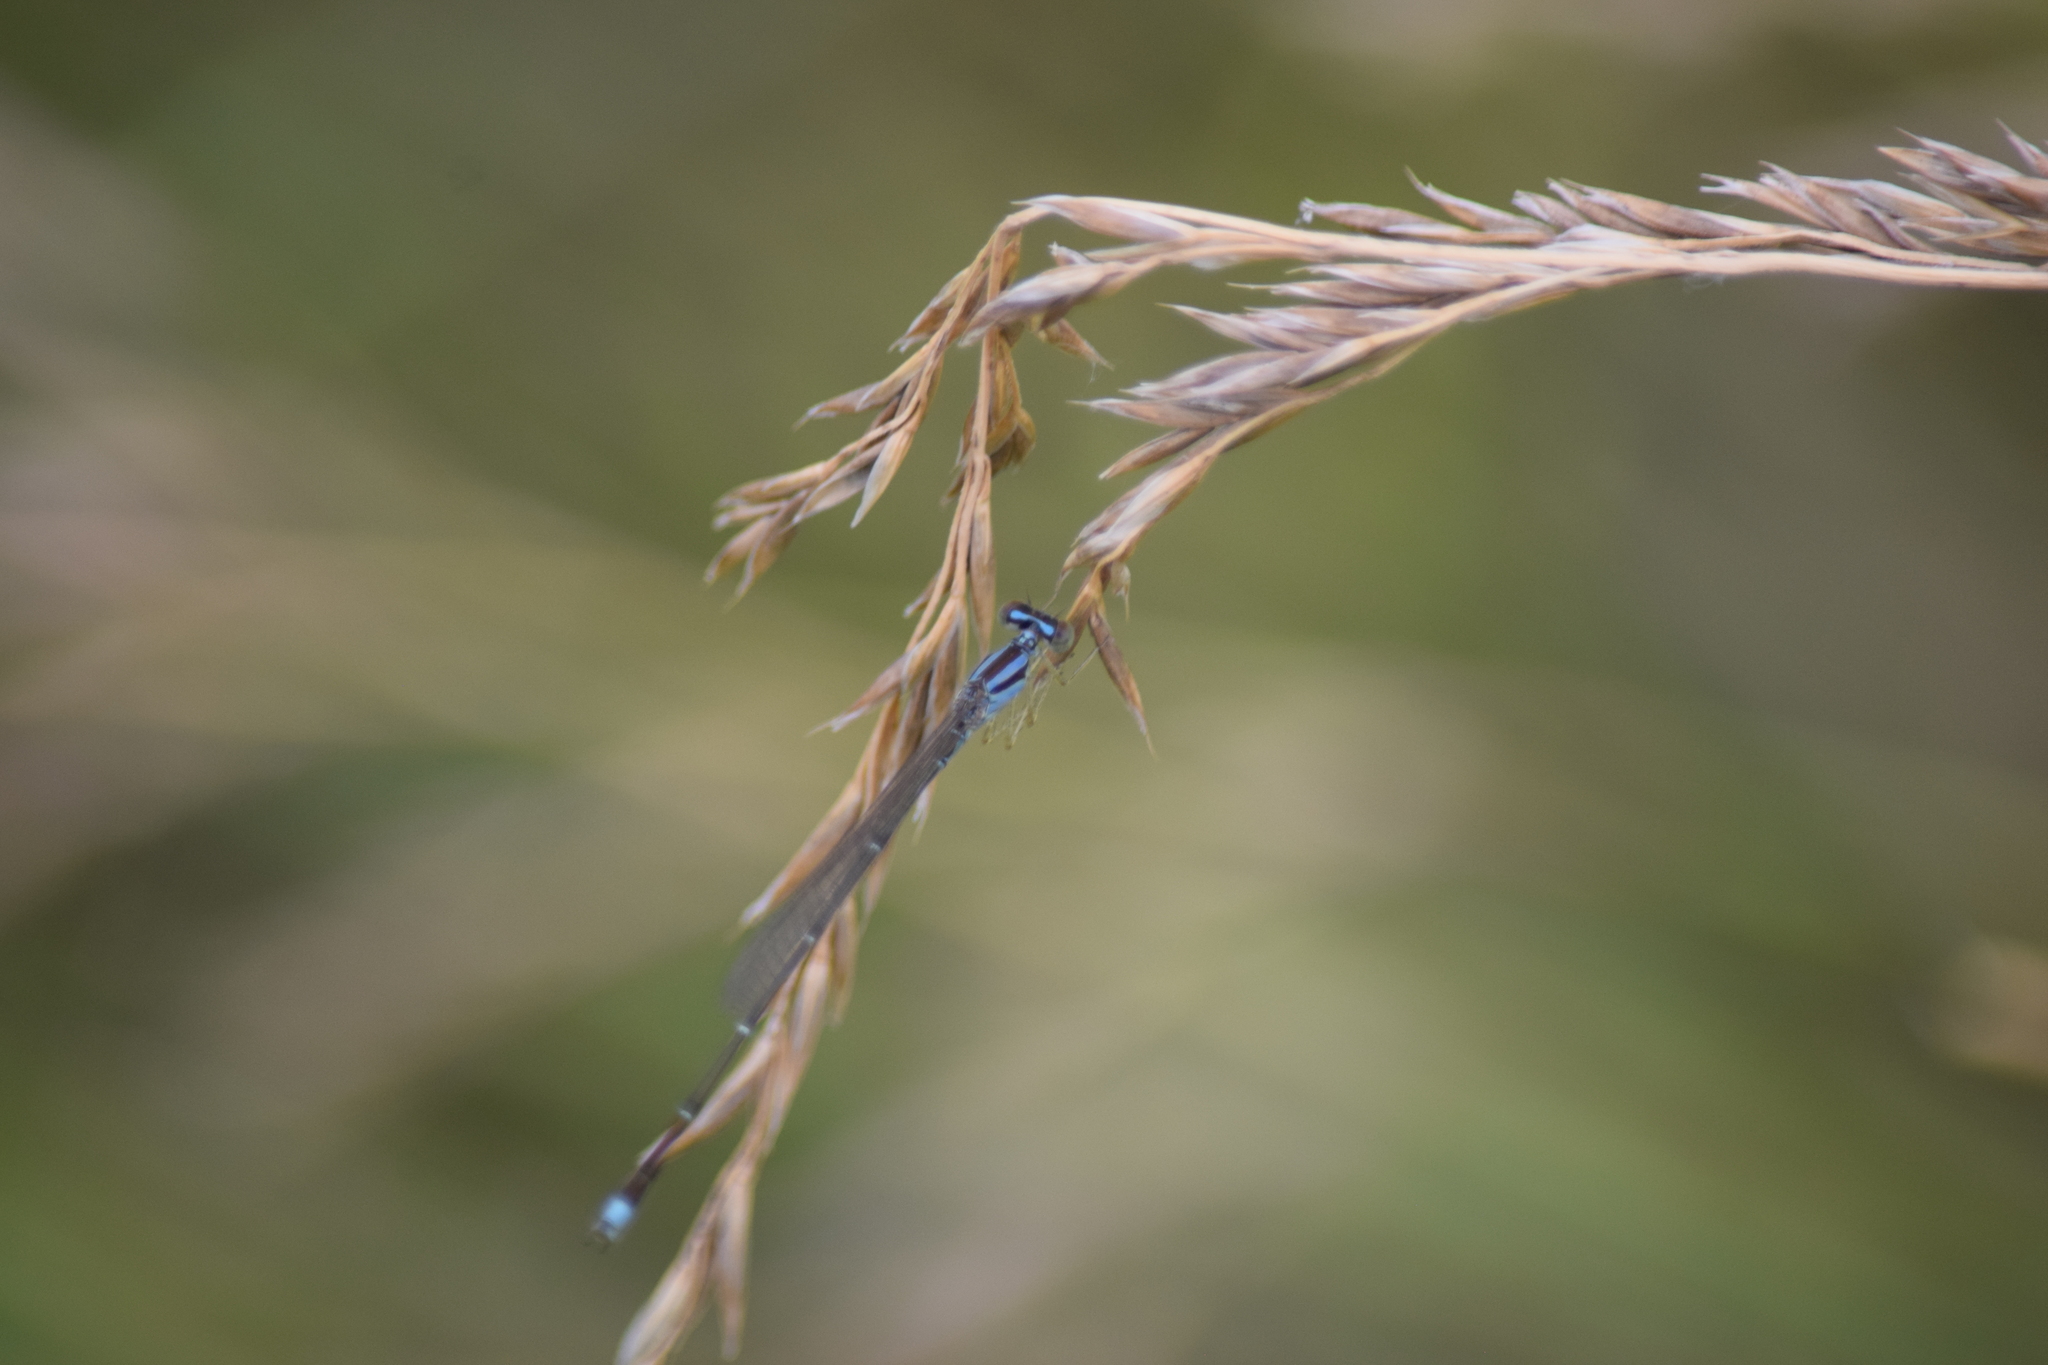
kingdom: Animalia
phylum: Arthropoda
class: Insecta
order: Odonata
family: Coenagrionidae
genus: Enallagma
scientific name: Enallagma signatum
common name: Orange bluet
